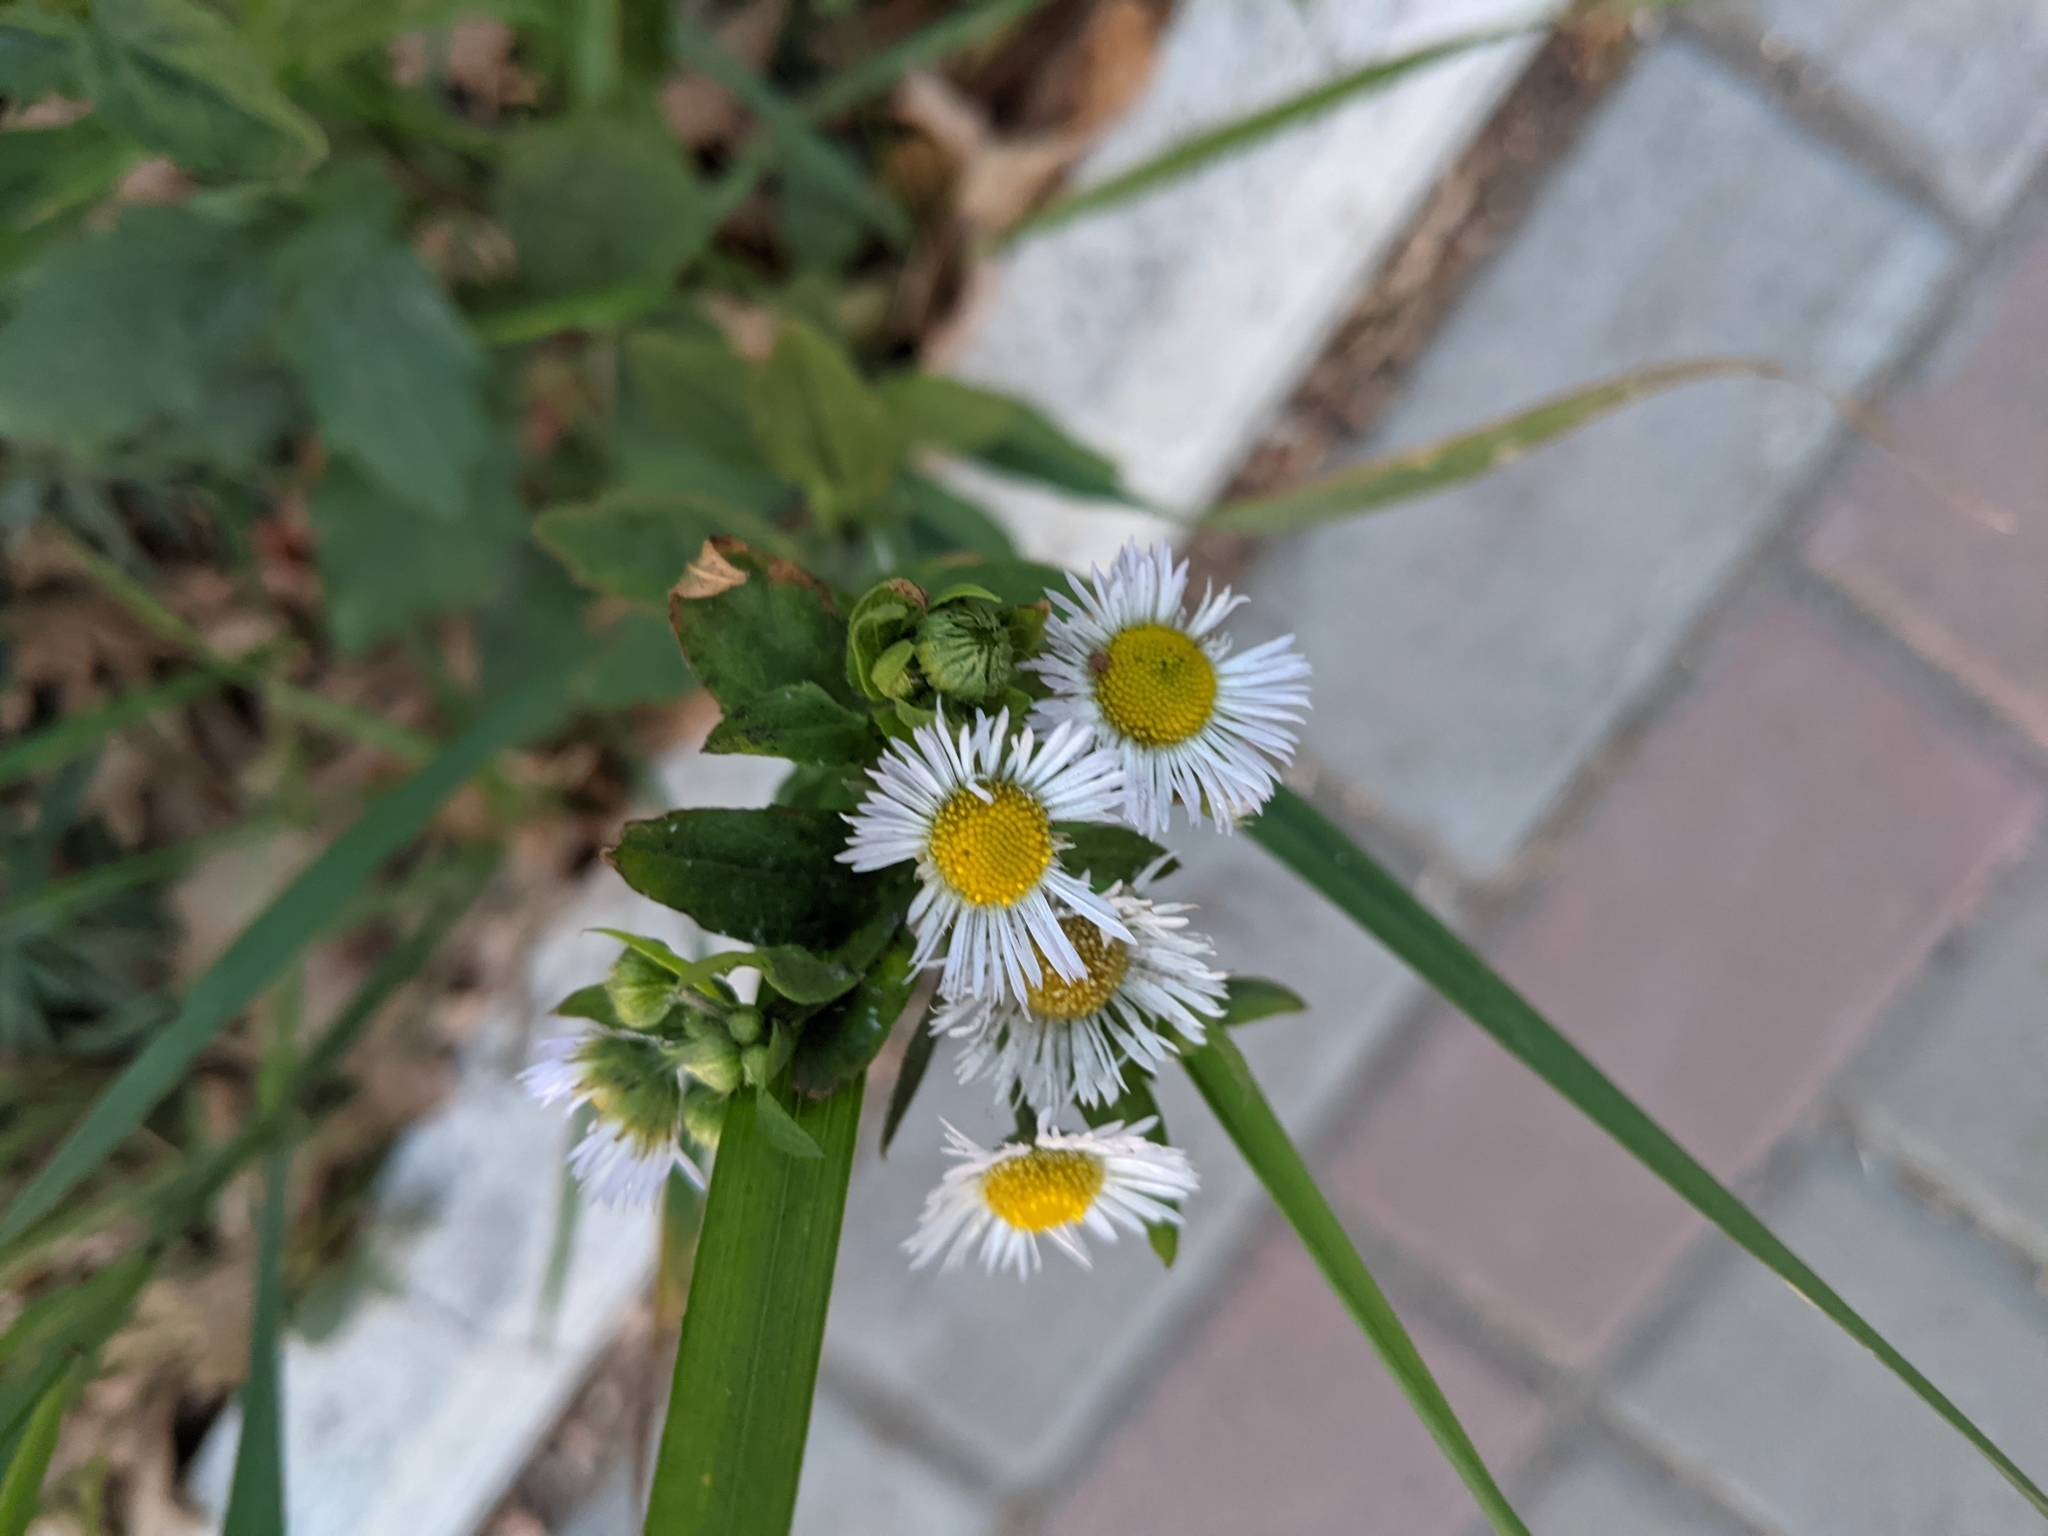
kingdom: Plantae
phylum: Tracheophyta
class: Magnoliopsida
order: Asterales
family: Asteraceae
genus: Erigeron
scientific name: Erigeron annuus
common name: Tall fleabane
